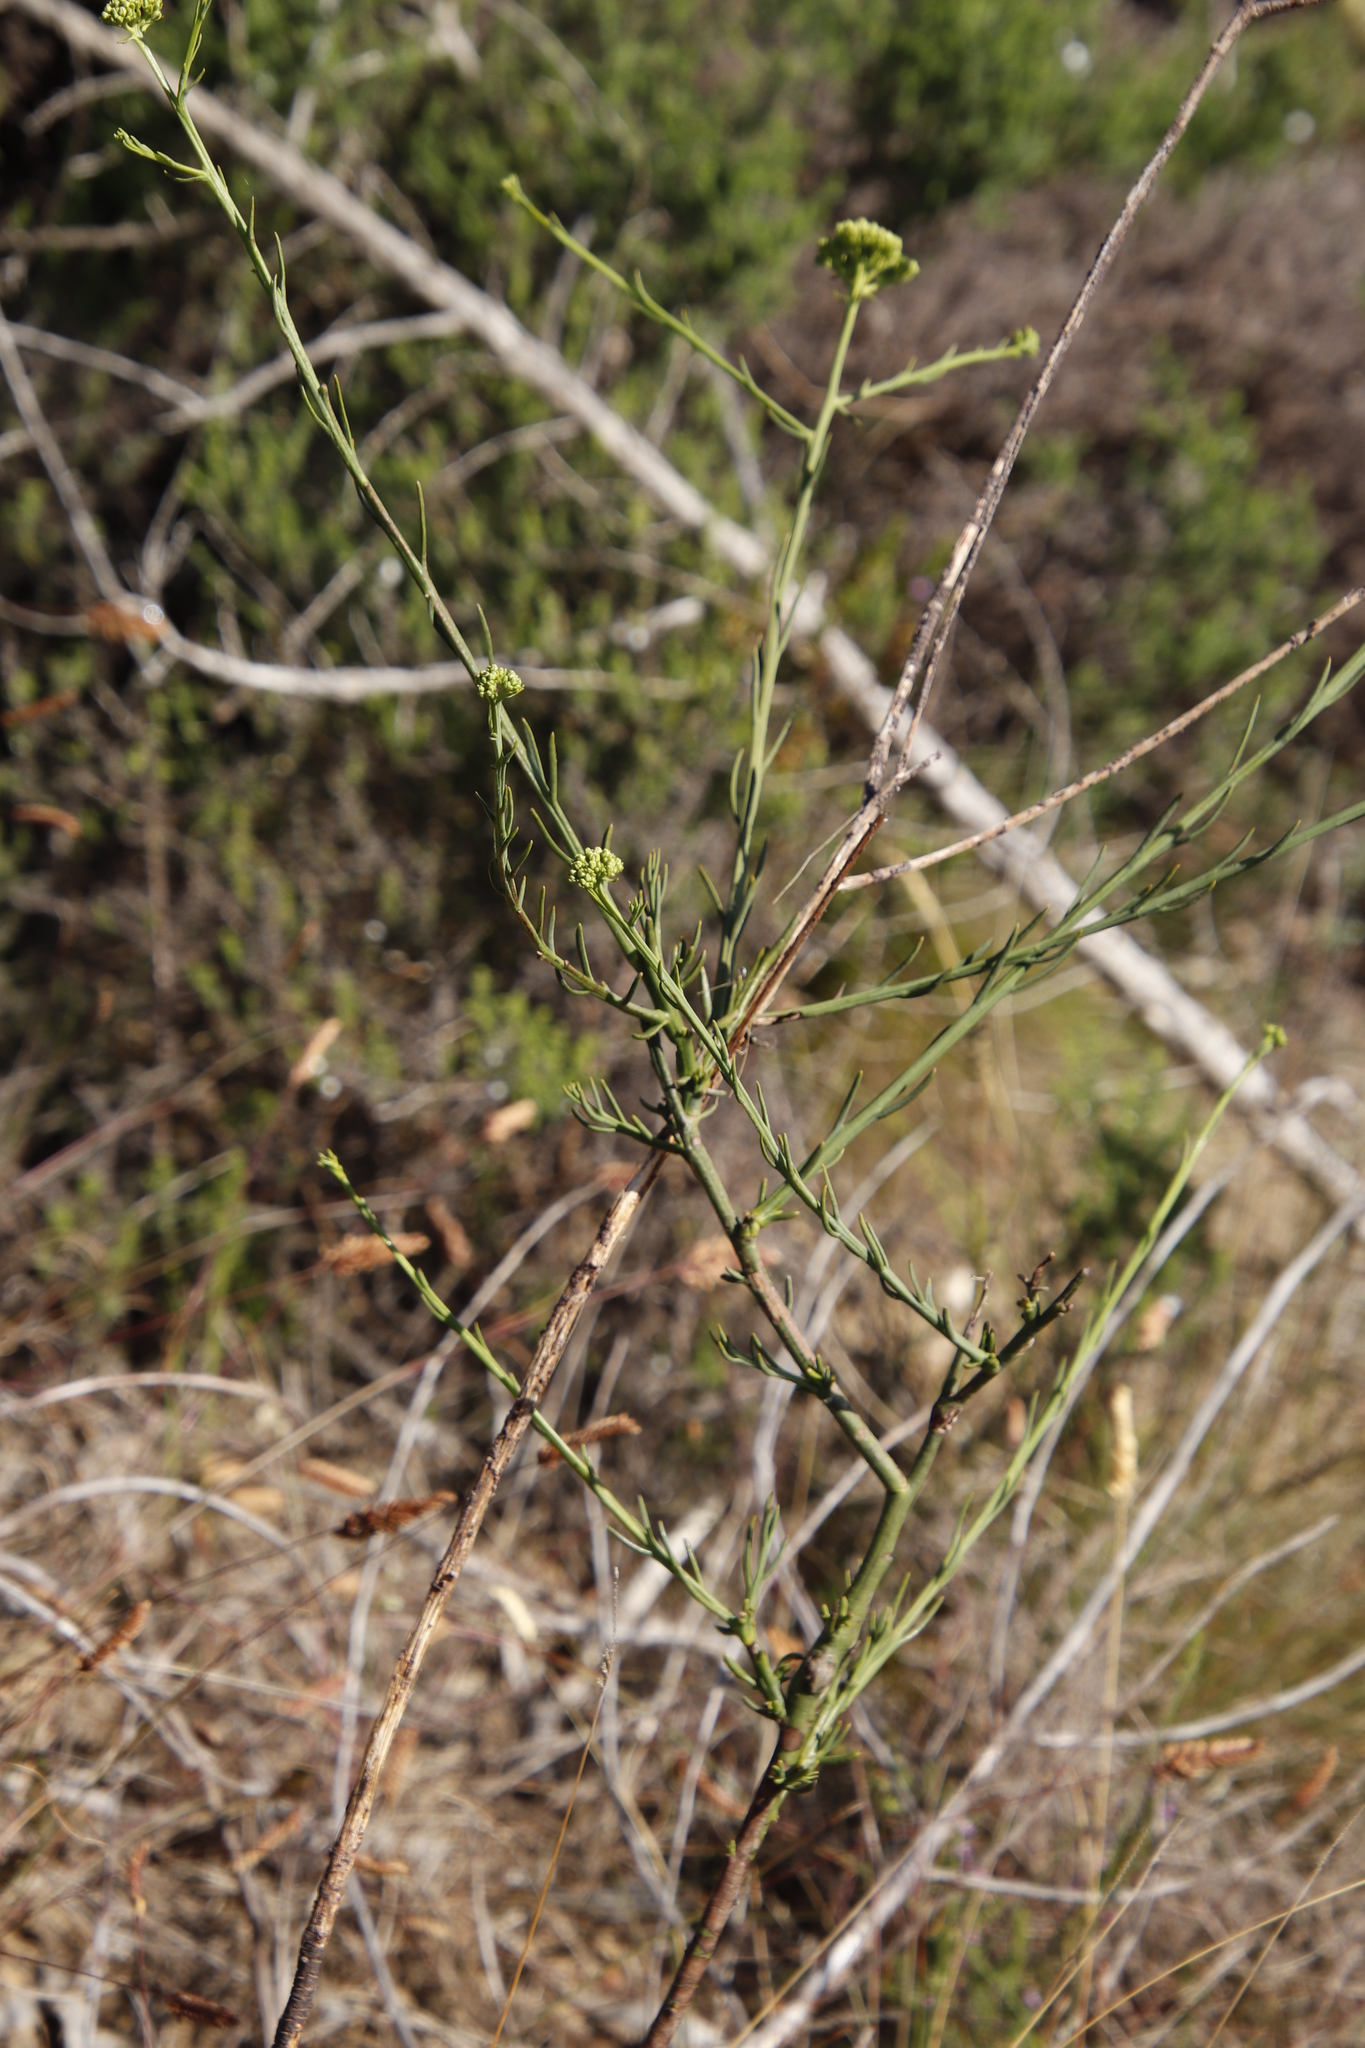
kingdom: Plantae
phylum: Tracheophyta
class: Magnoliopsida
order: Santalales
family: Thesiaceae
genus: Thesium
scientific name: Thesium strictum
